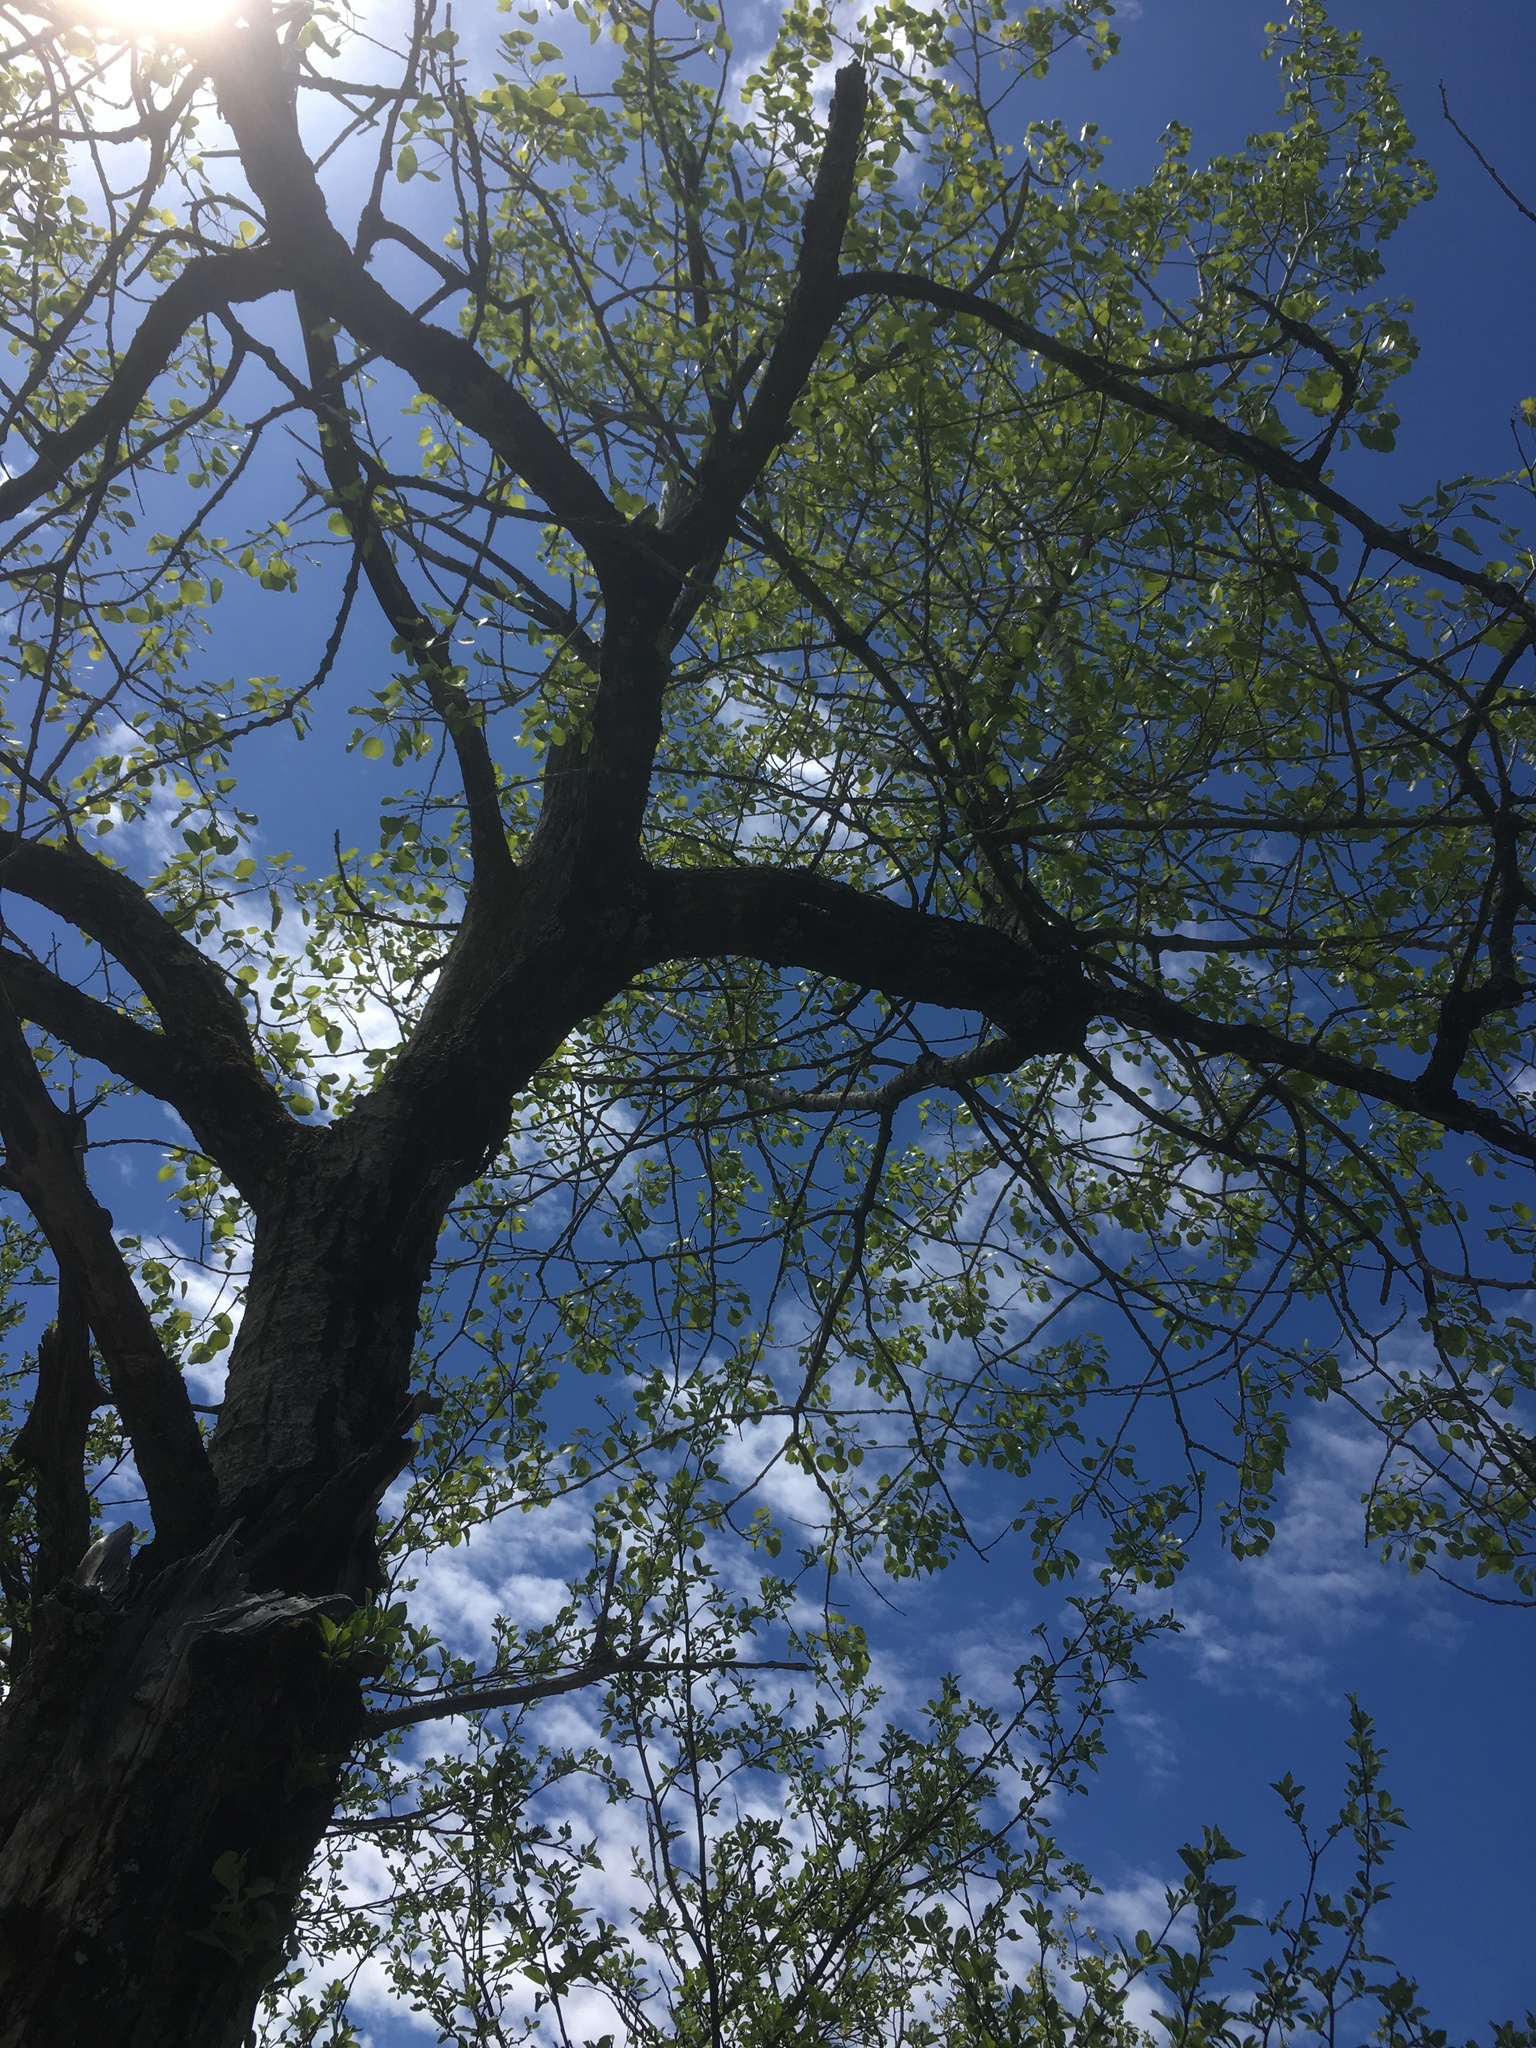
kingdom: Plantae
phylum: Tracheophyta
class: Magnoliopsida
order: Malpighiales
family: Salicaceae
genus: Populus
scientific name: Populus tremuloides
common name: Quaking aspen
